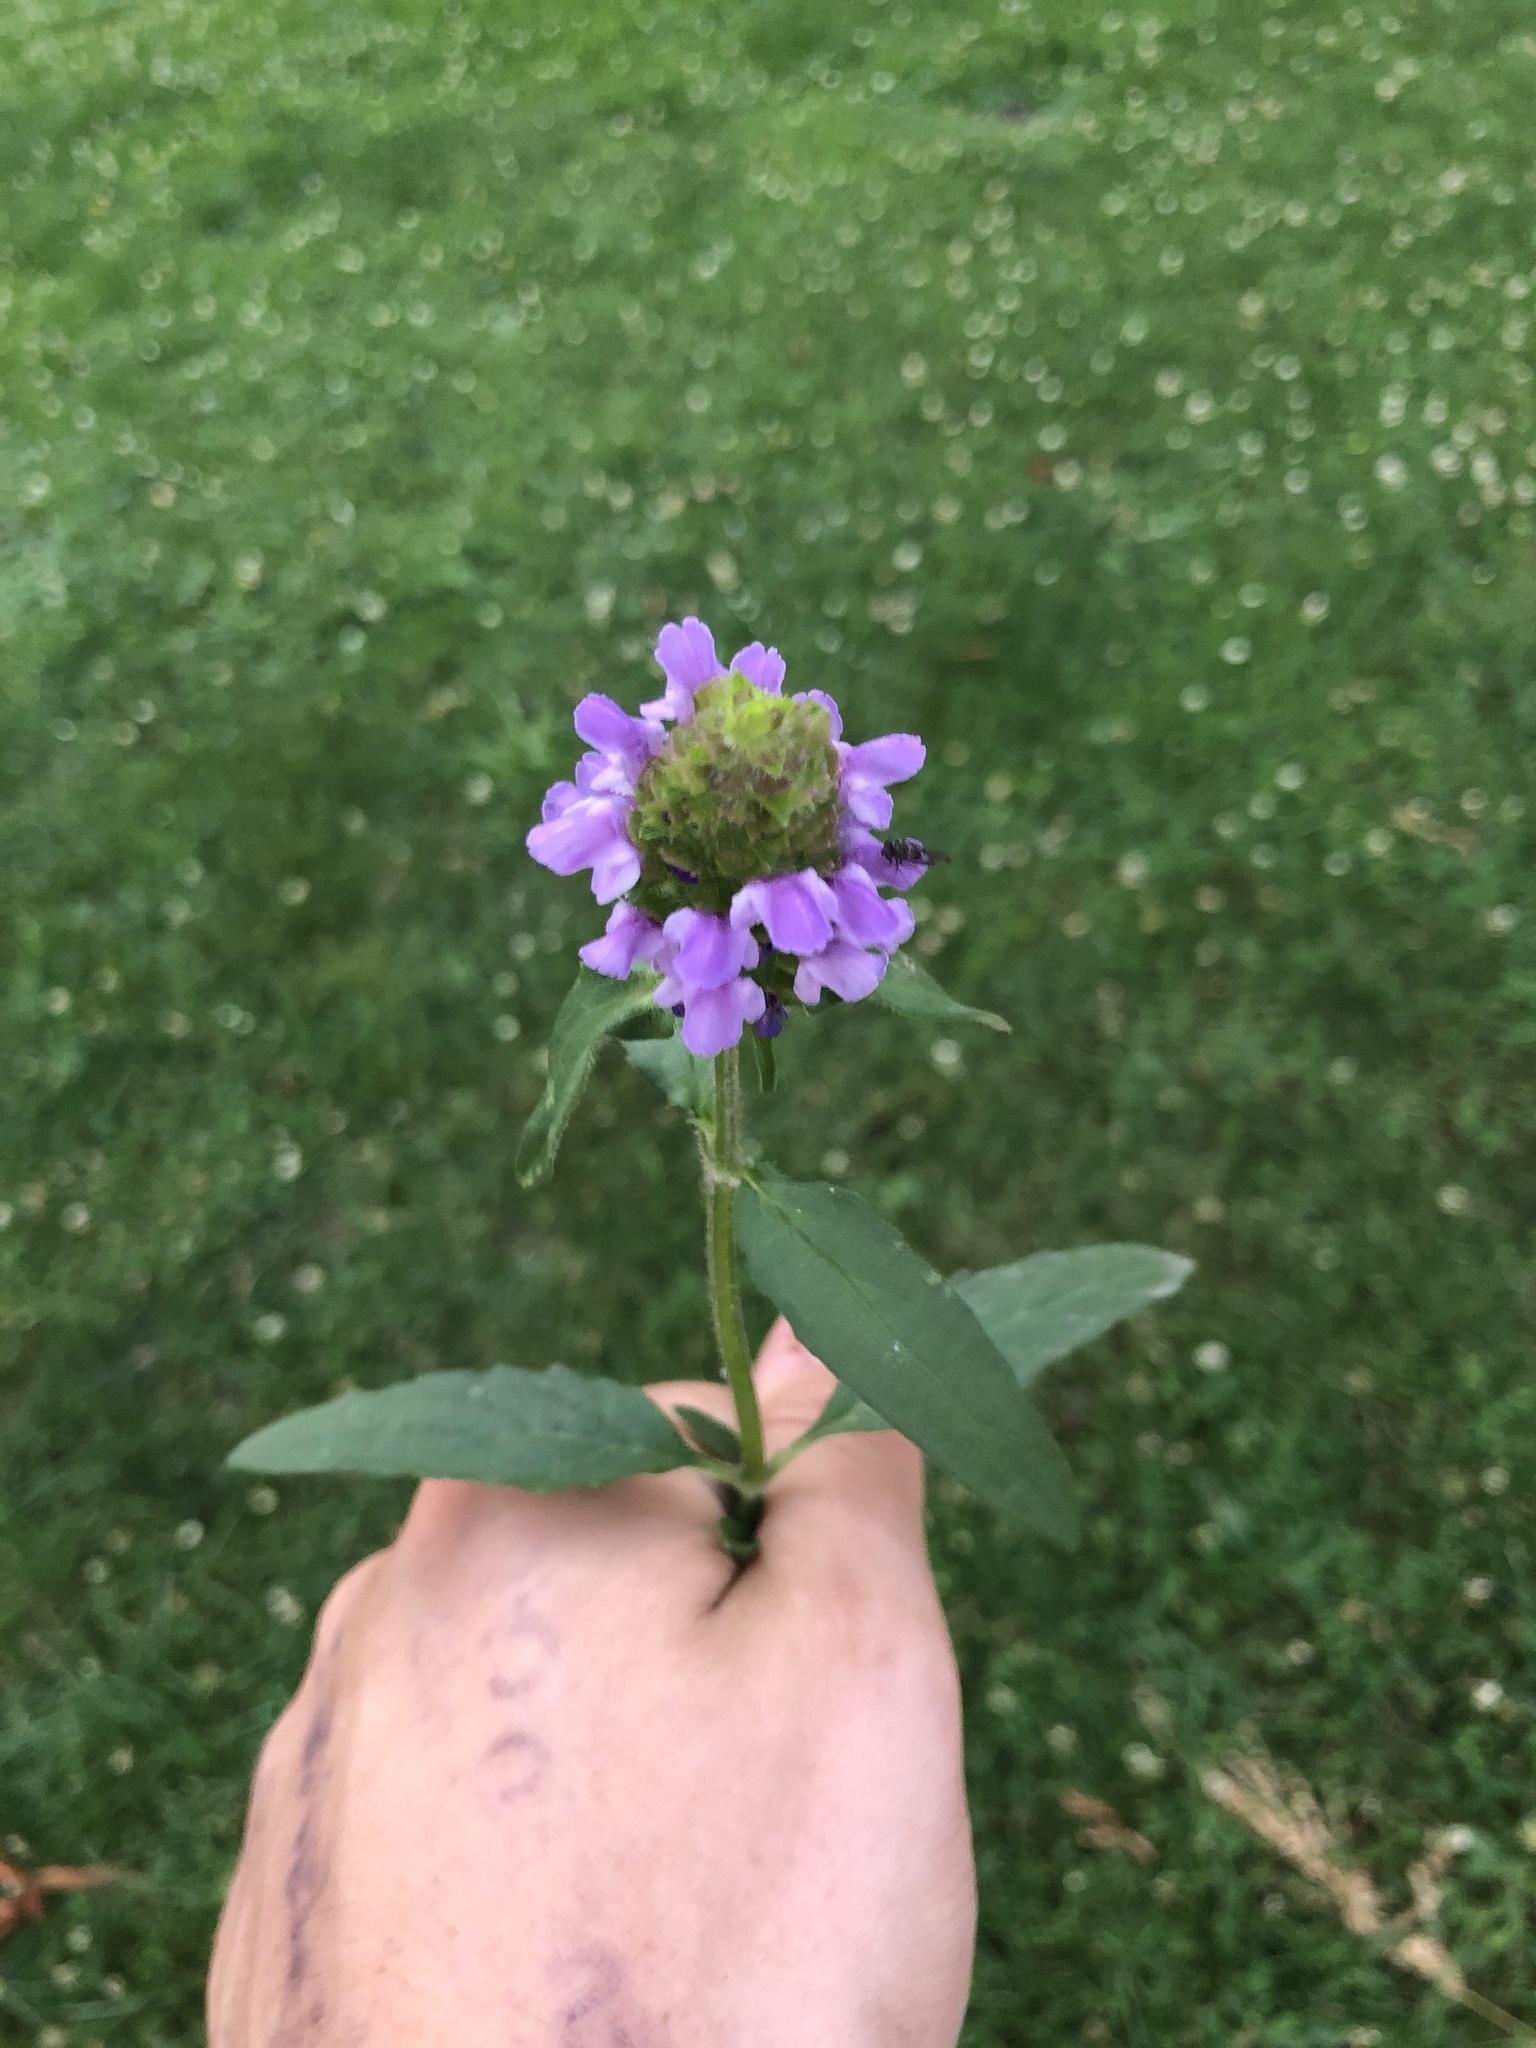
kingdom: Plantae
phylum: Tracheophyta
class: Magnoliopsida
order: Lamiales
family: Lamiaceae
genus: Prunella
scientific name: Prunella vulgaris
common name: Heal-all
